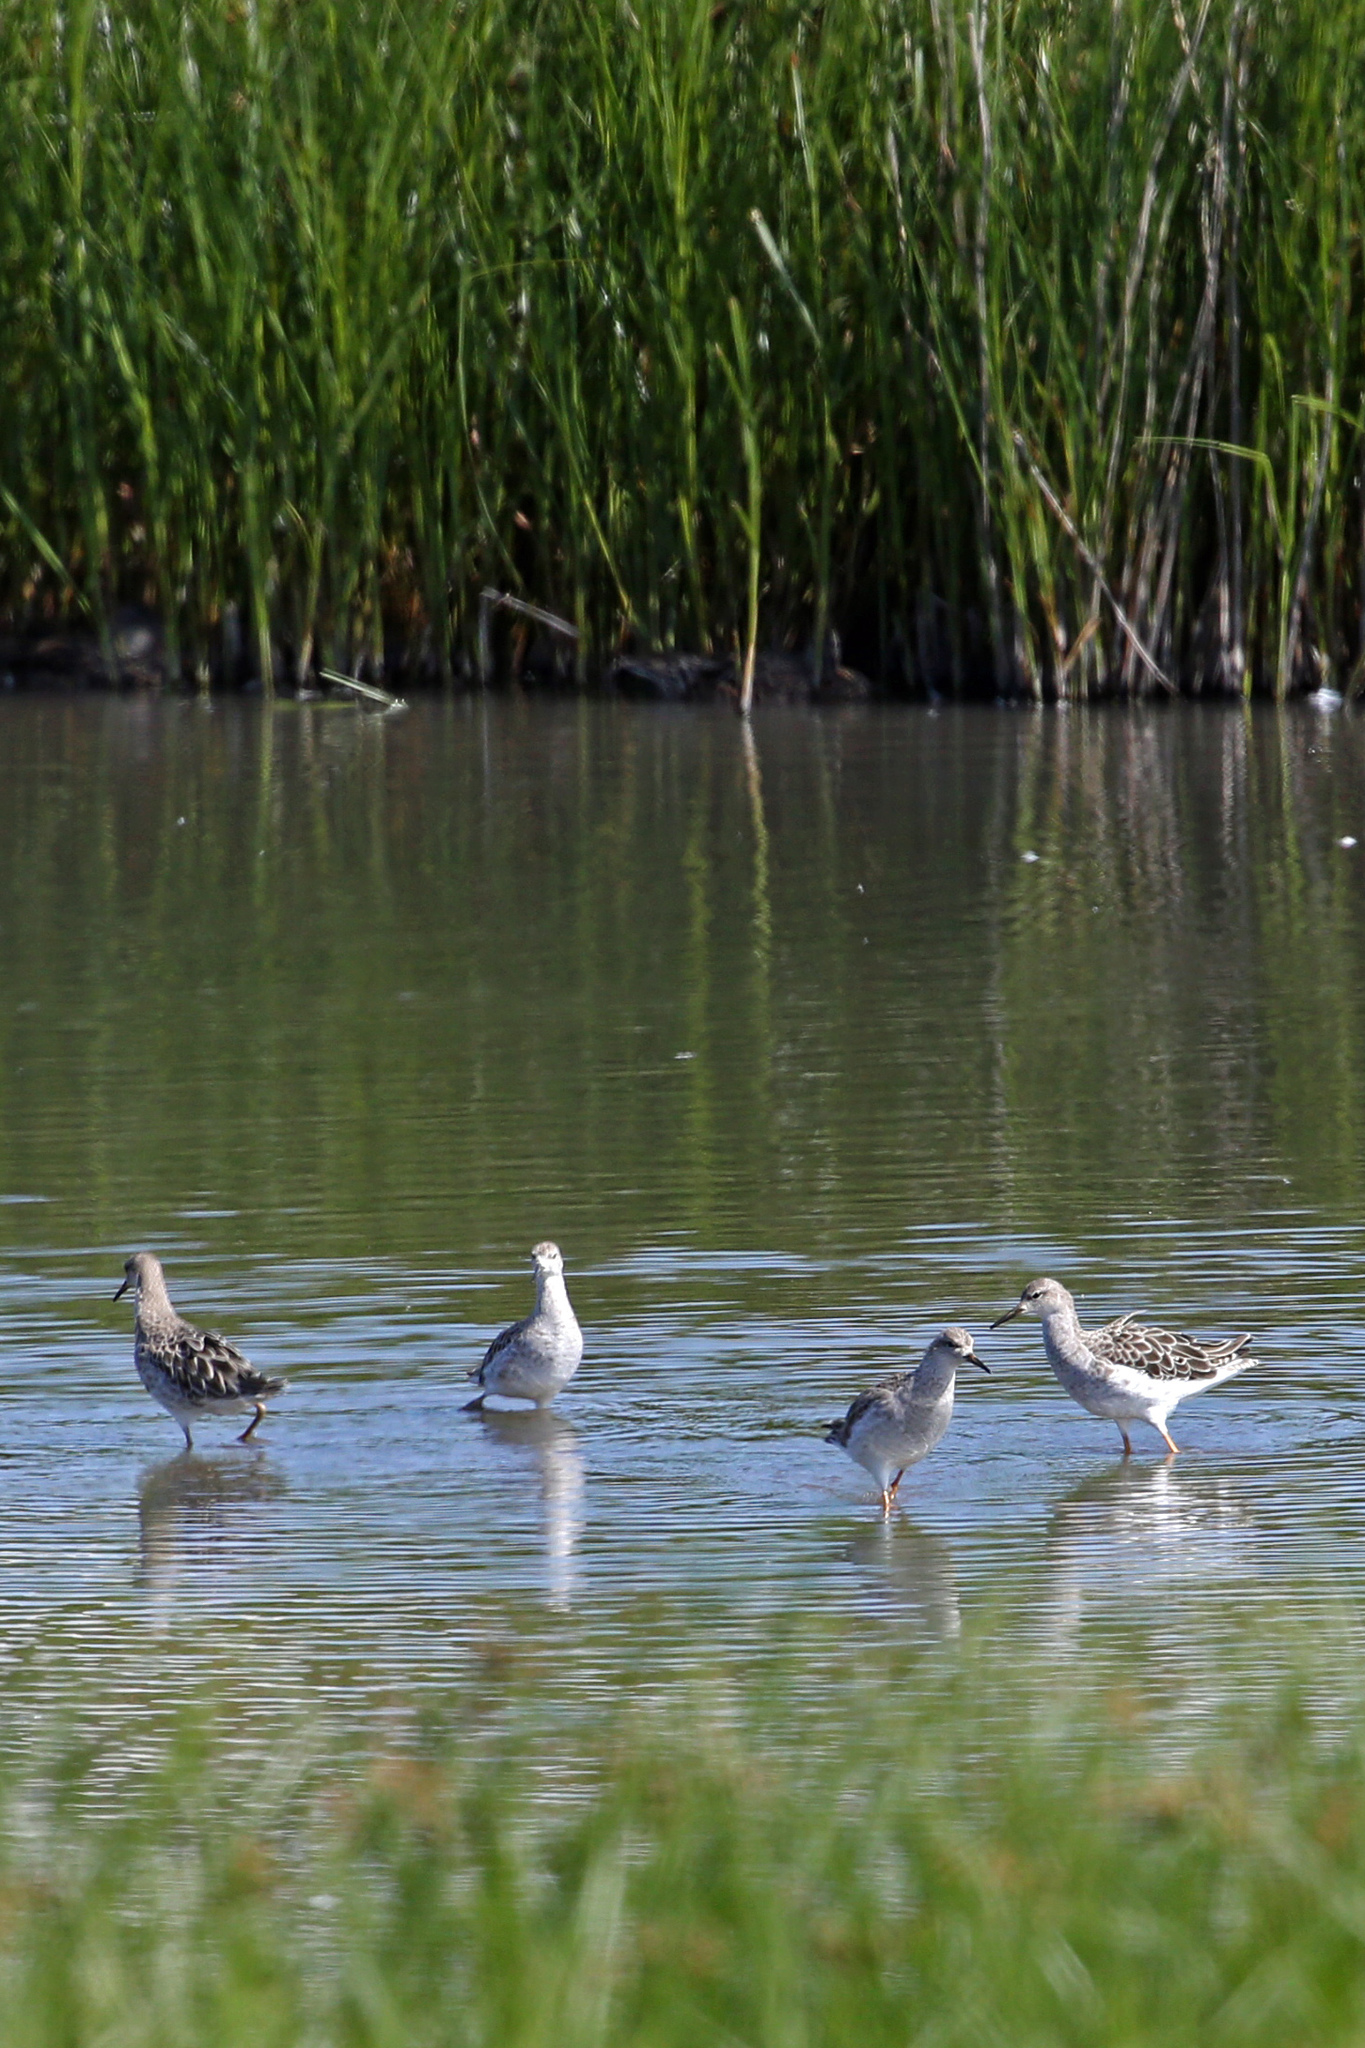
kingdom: Animalia
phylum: Chordata
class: Aves
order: Charadriiformes
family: Scolopacidae
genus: Calidris
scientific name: Calidris pugnax
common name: Ruff
